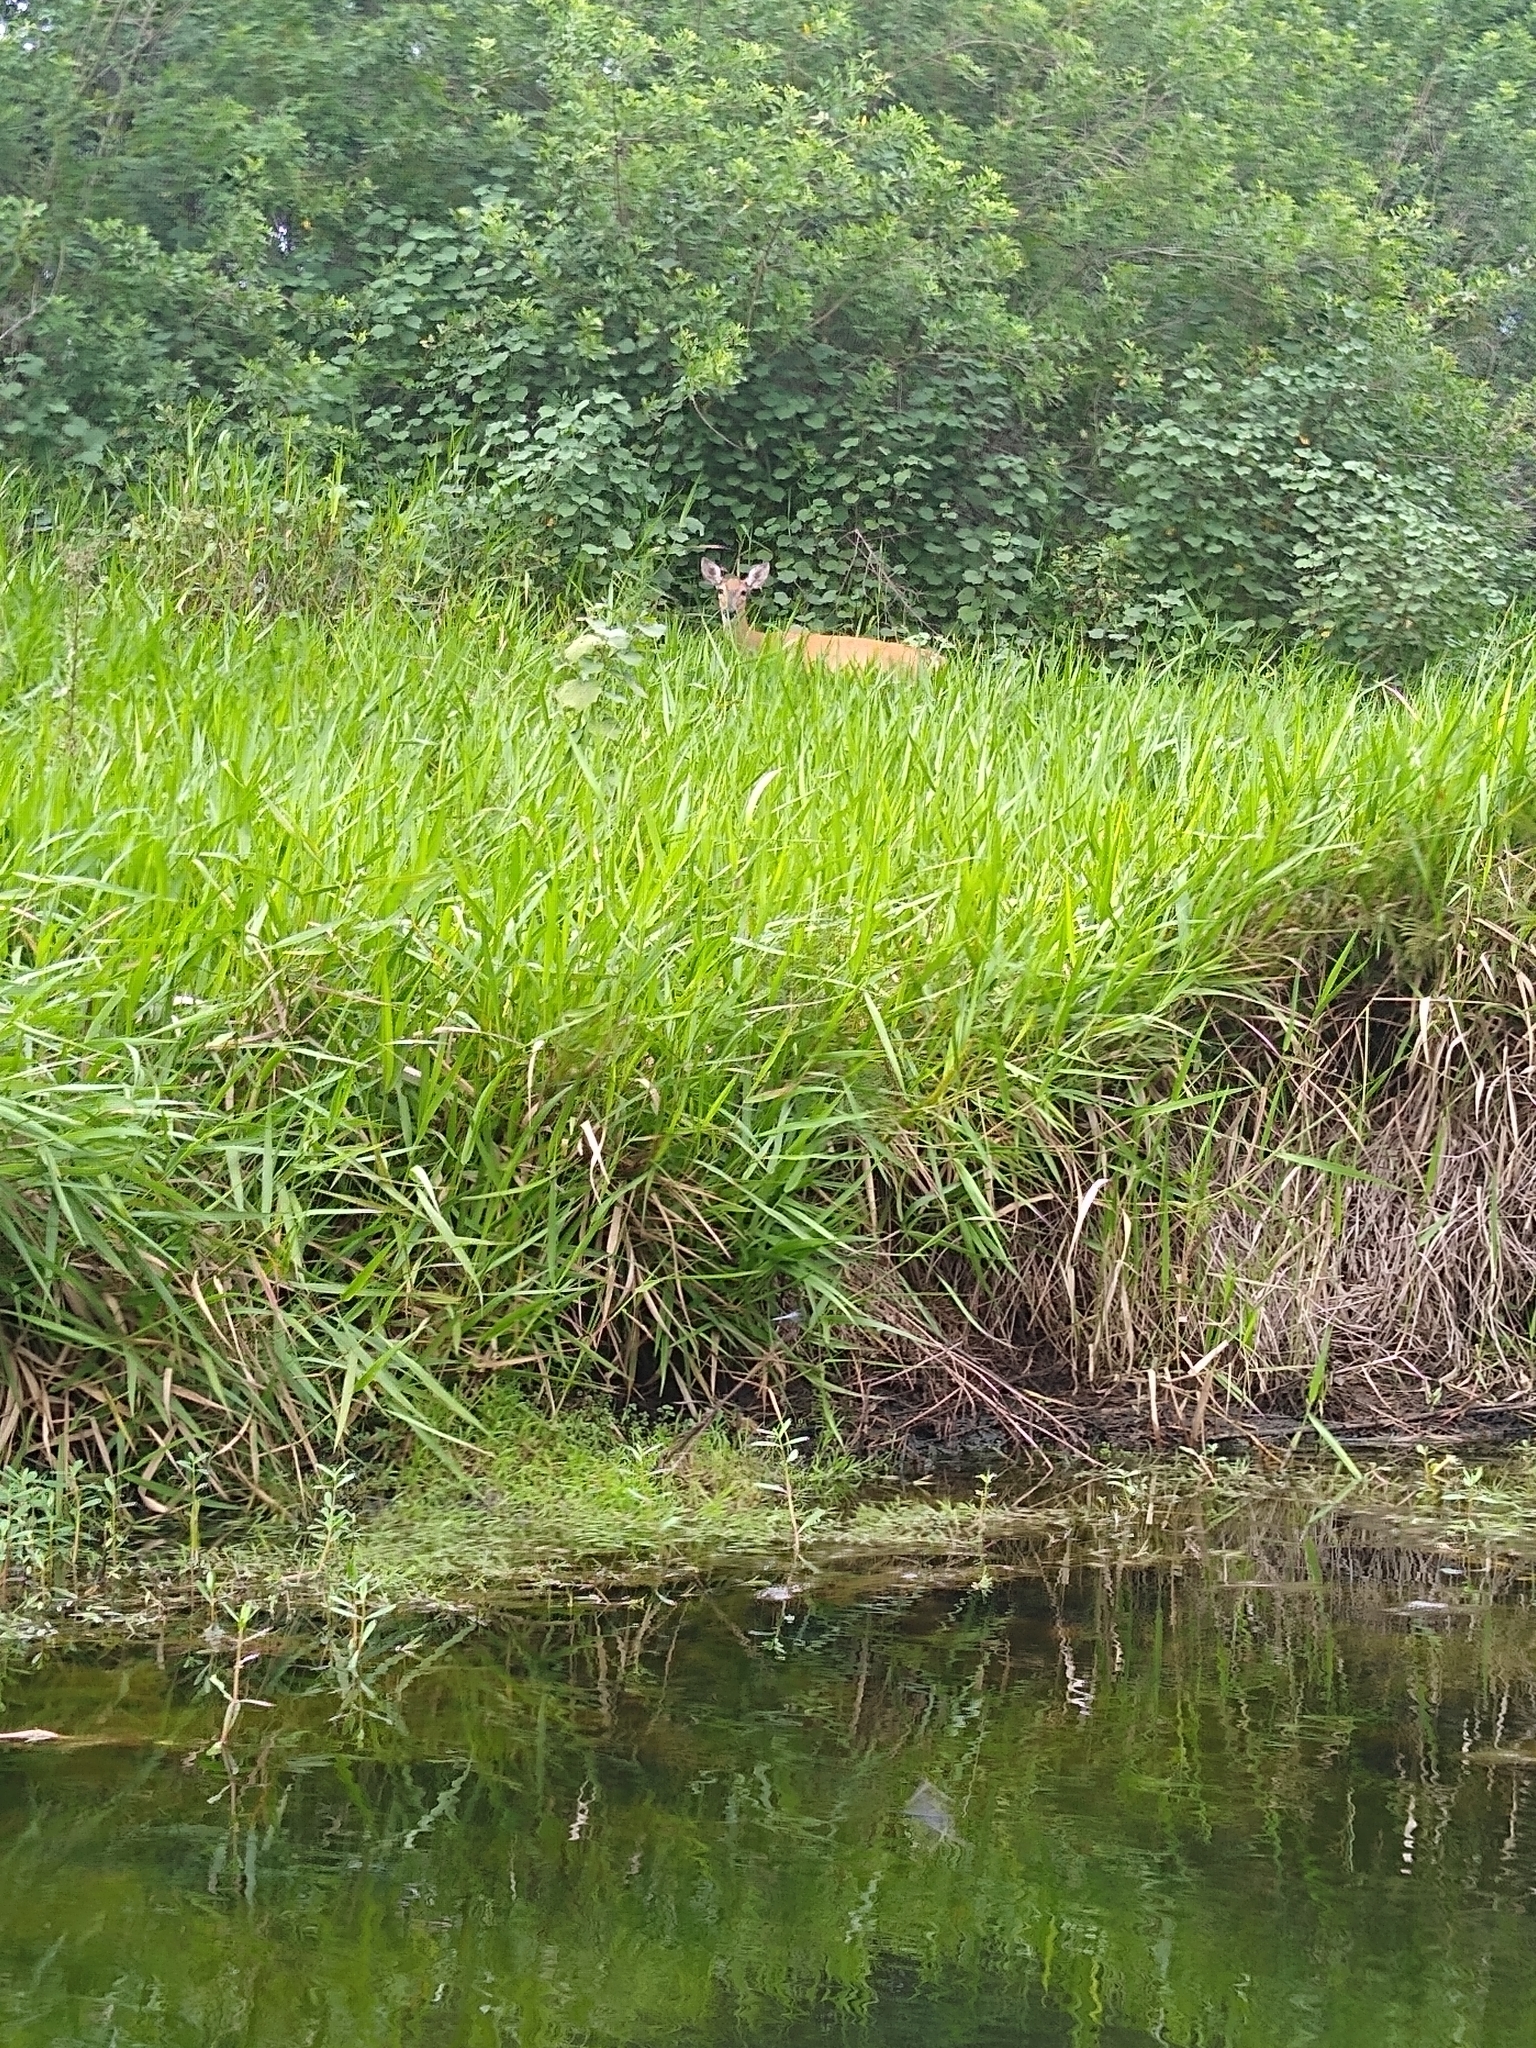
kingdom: Animalia
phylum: Chordata
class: Mammalia
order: Artiodactyla
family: Cervidae
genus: Odocoileus
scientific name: Odocoileus virginianus
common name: White-tailed deer
